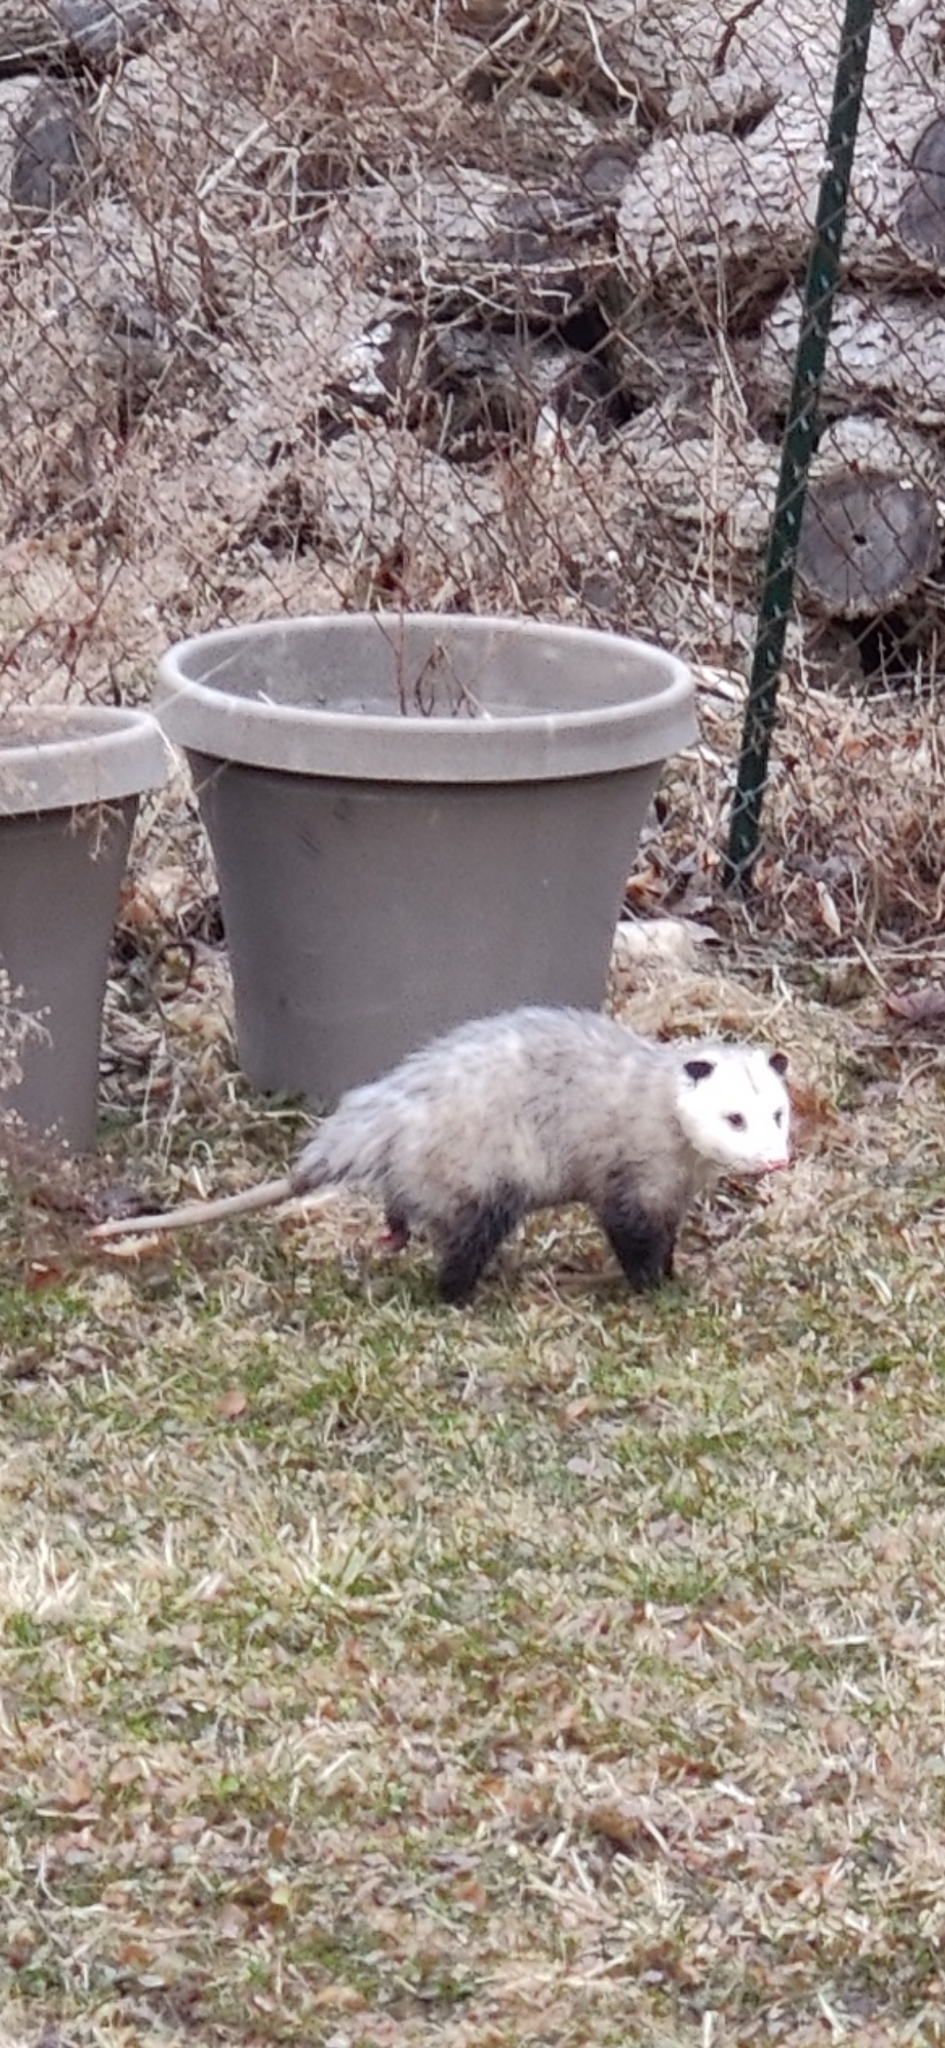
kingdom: Animalia
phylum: Chordata
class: Mammalia
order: Didelphimorphia
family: Didelphidae
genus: Didelphis
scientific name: Didelphis virginiana
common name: Virginia opossum
